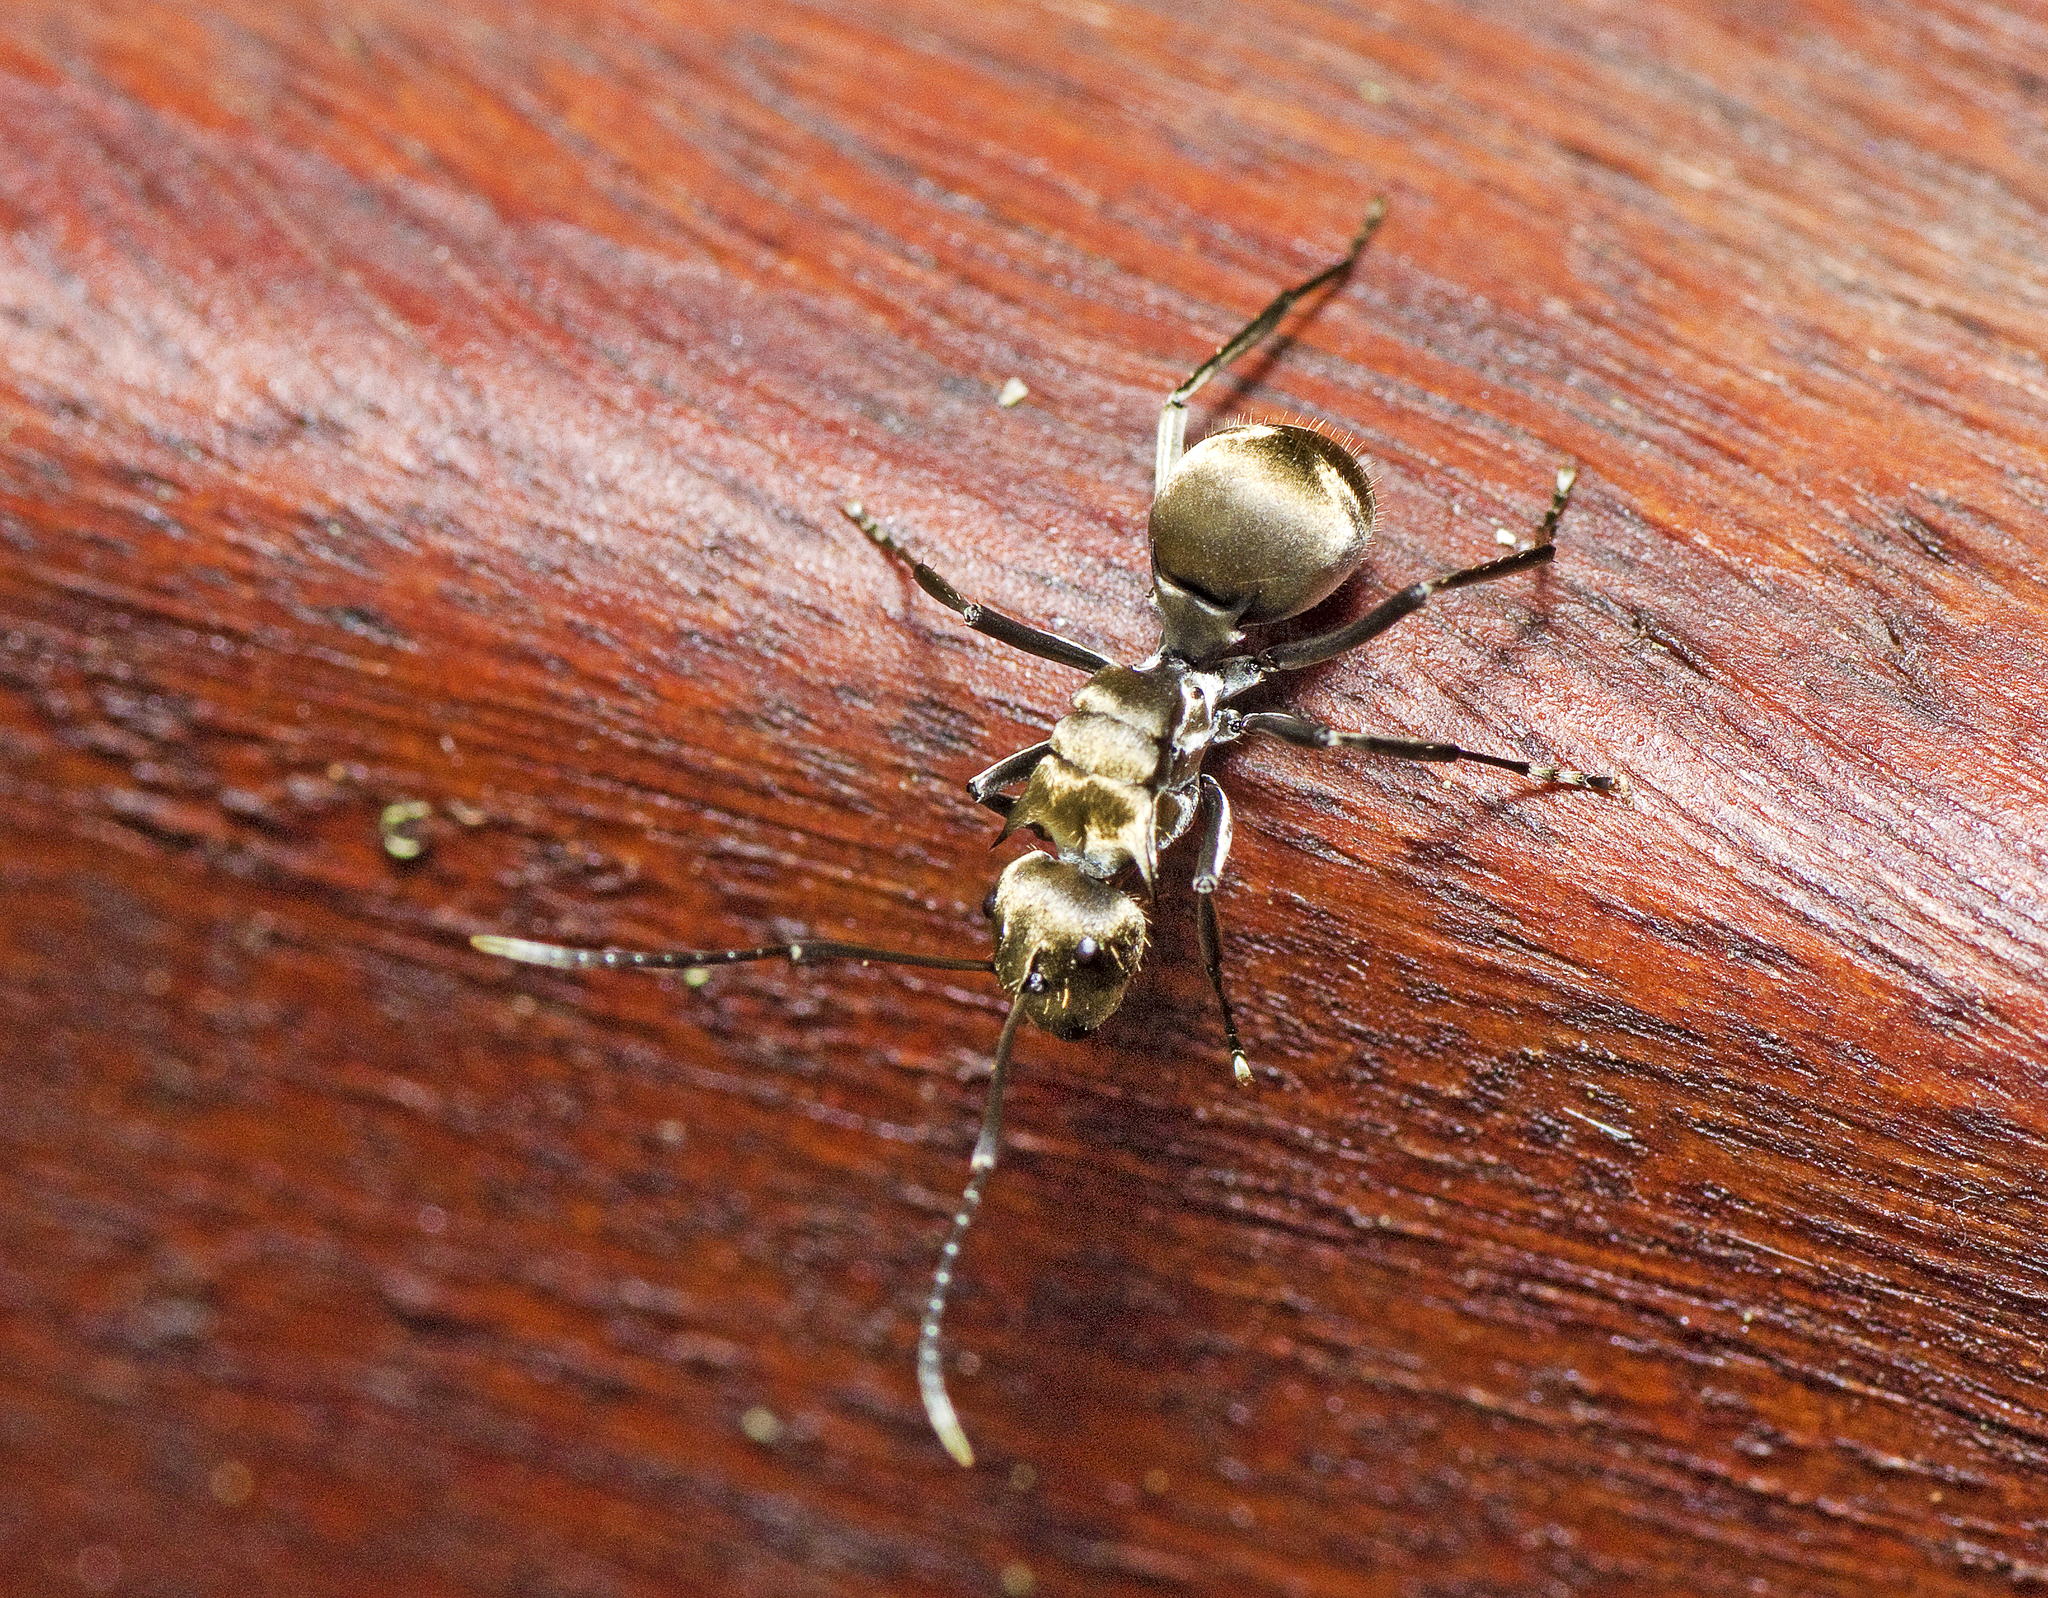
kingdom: Animalia
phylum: Arthropoda
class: Insecta
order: Hymenoptera
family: Formicidae
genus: Polyrhachis
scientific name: Polyrhachis foreli
